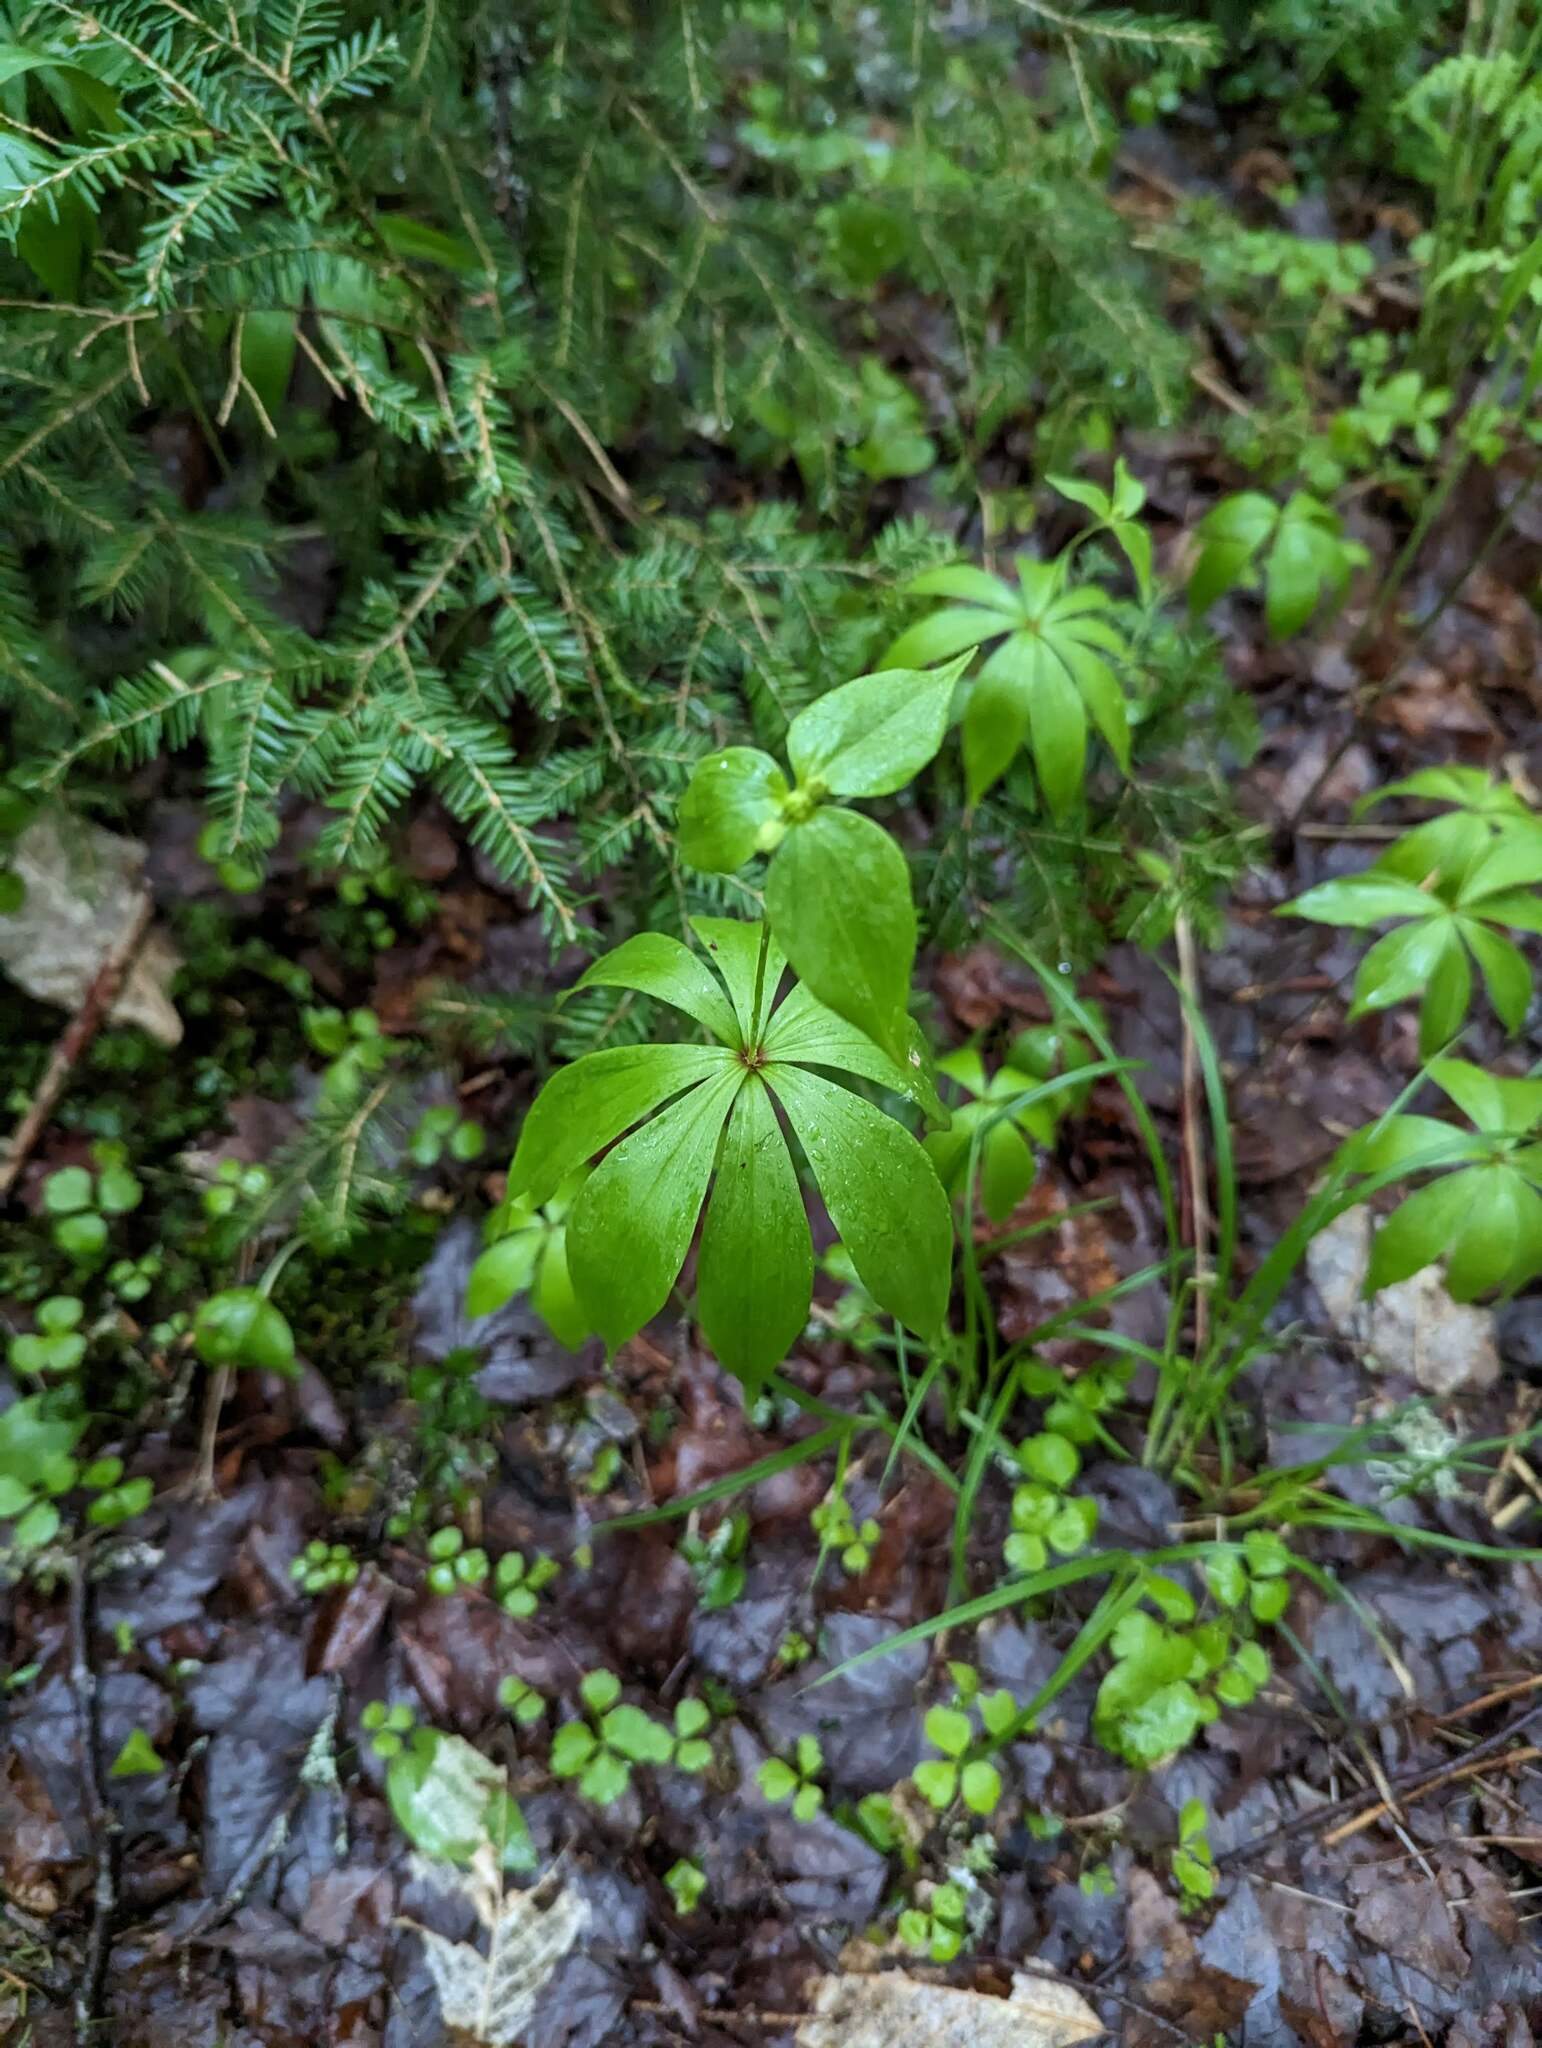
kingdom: Plantae
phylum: Tracheophyta
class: Liliopsida
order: Liliales
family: Liliaceae
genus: Medeola
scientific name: Medeola virginiana
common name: Indian cucumber-root
